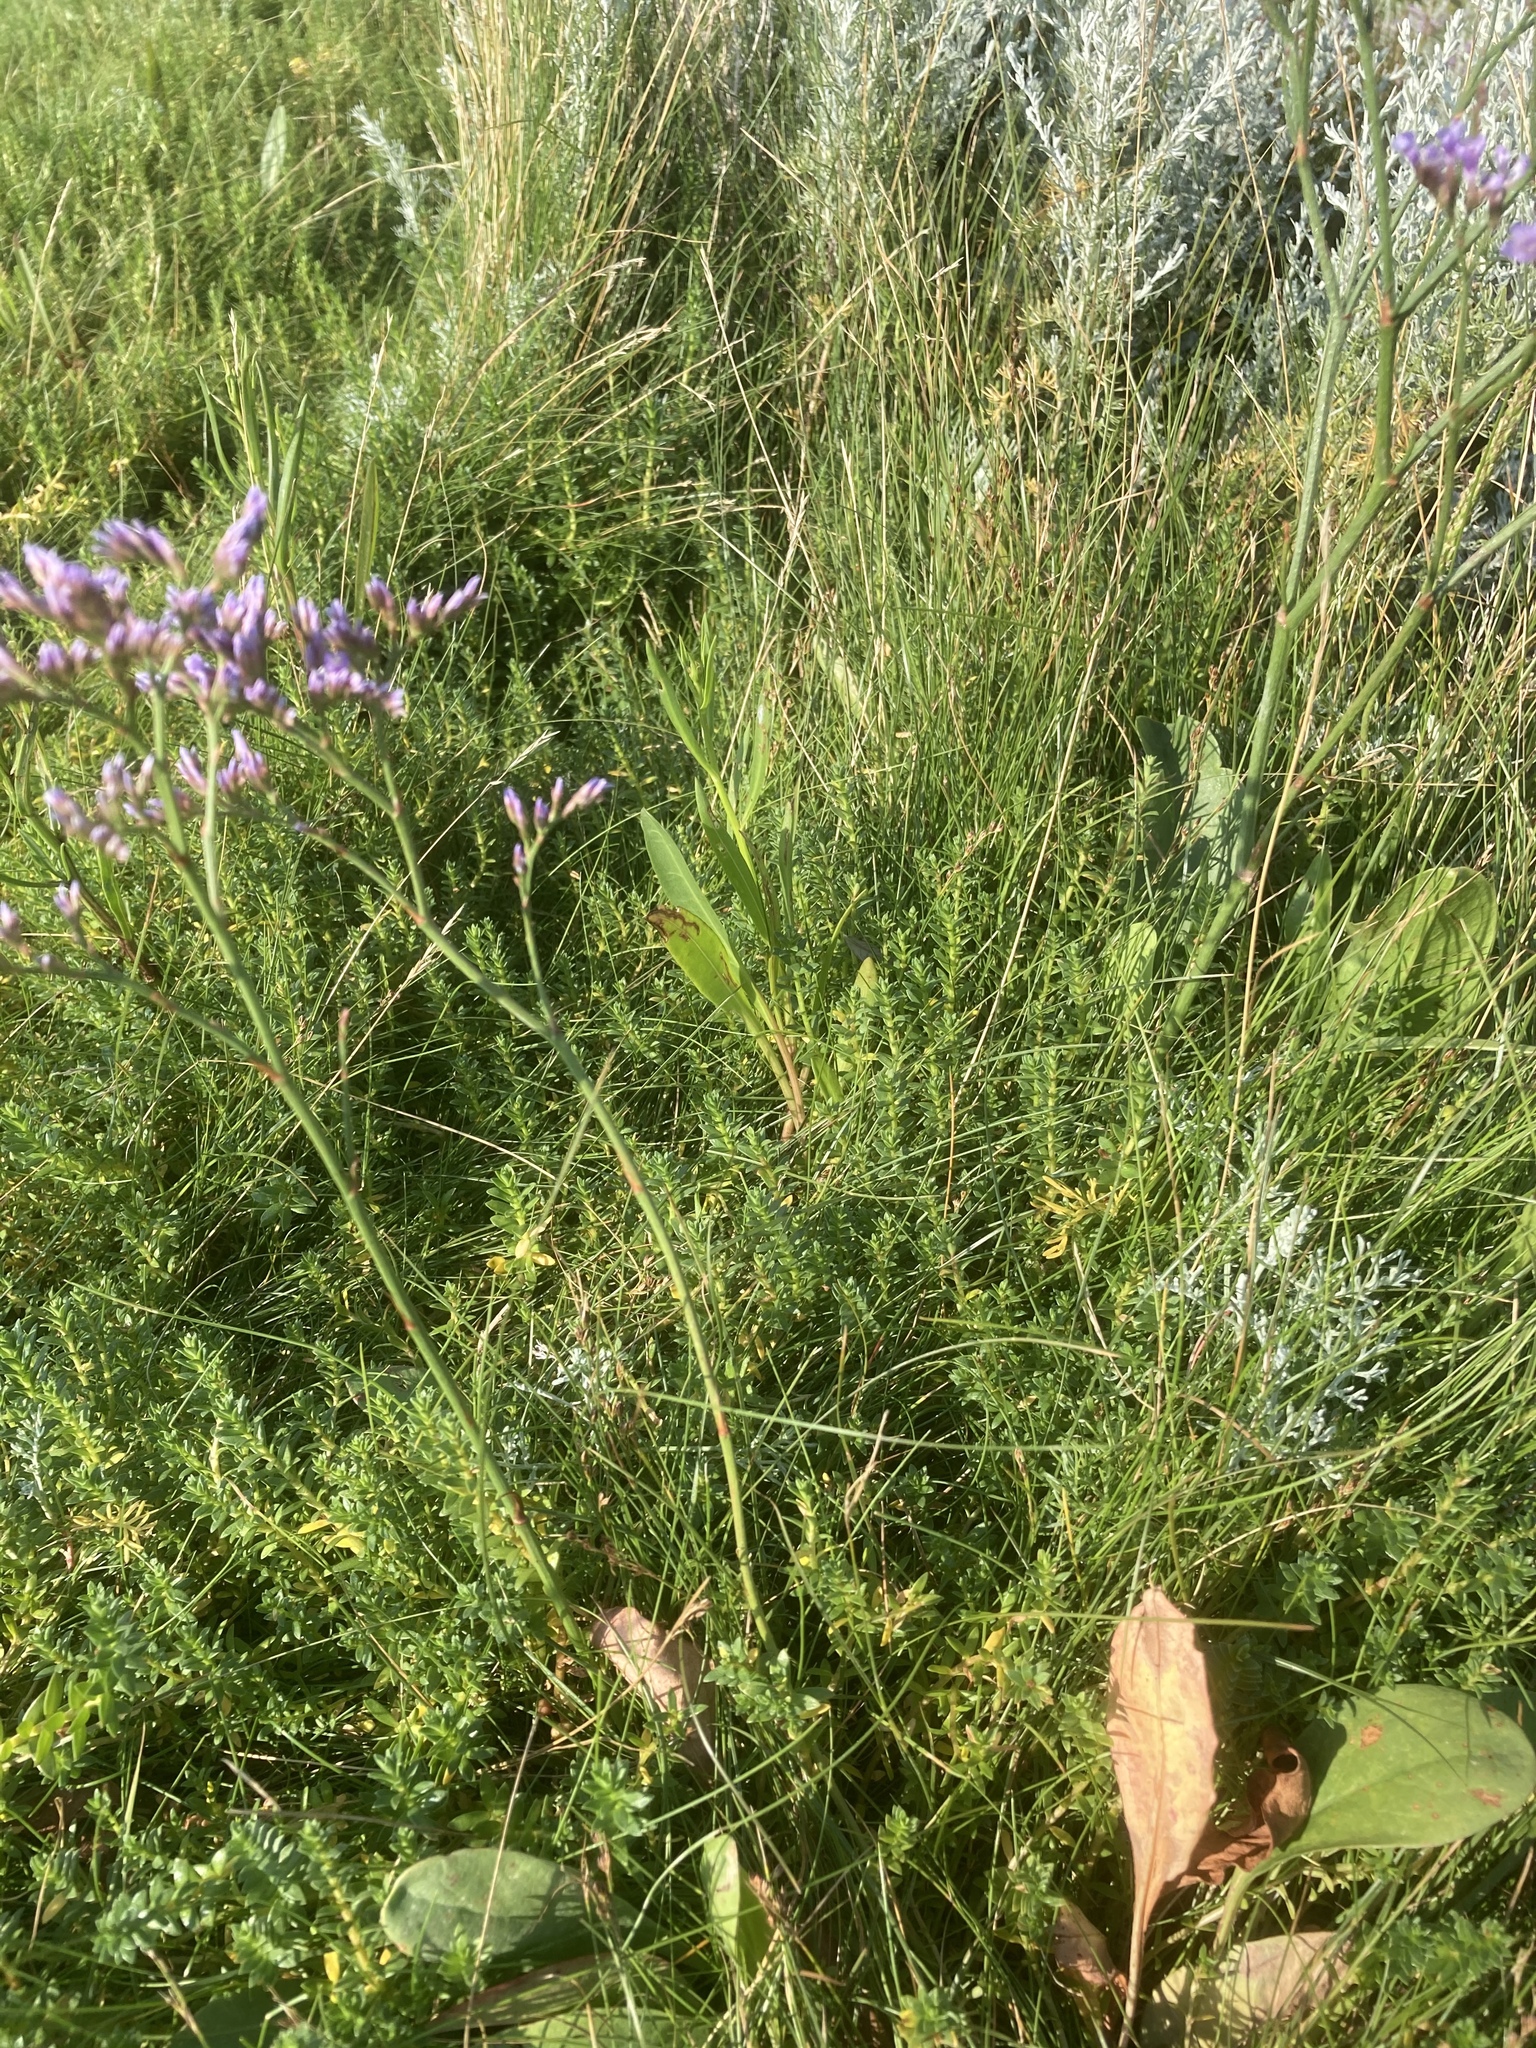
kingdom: Plantae
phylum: Tracheophyta
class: Magnoliopsida
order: Caryophyllales
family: Plumbaginaceae
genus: Limonium
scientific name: Limonium vulgare
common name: Common sea-lavender
